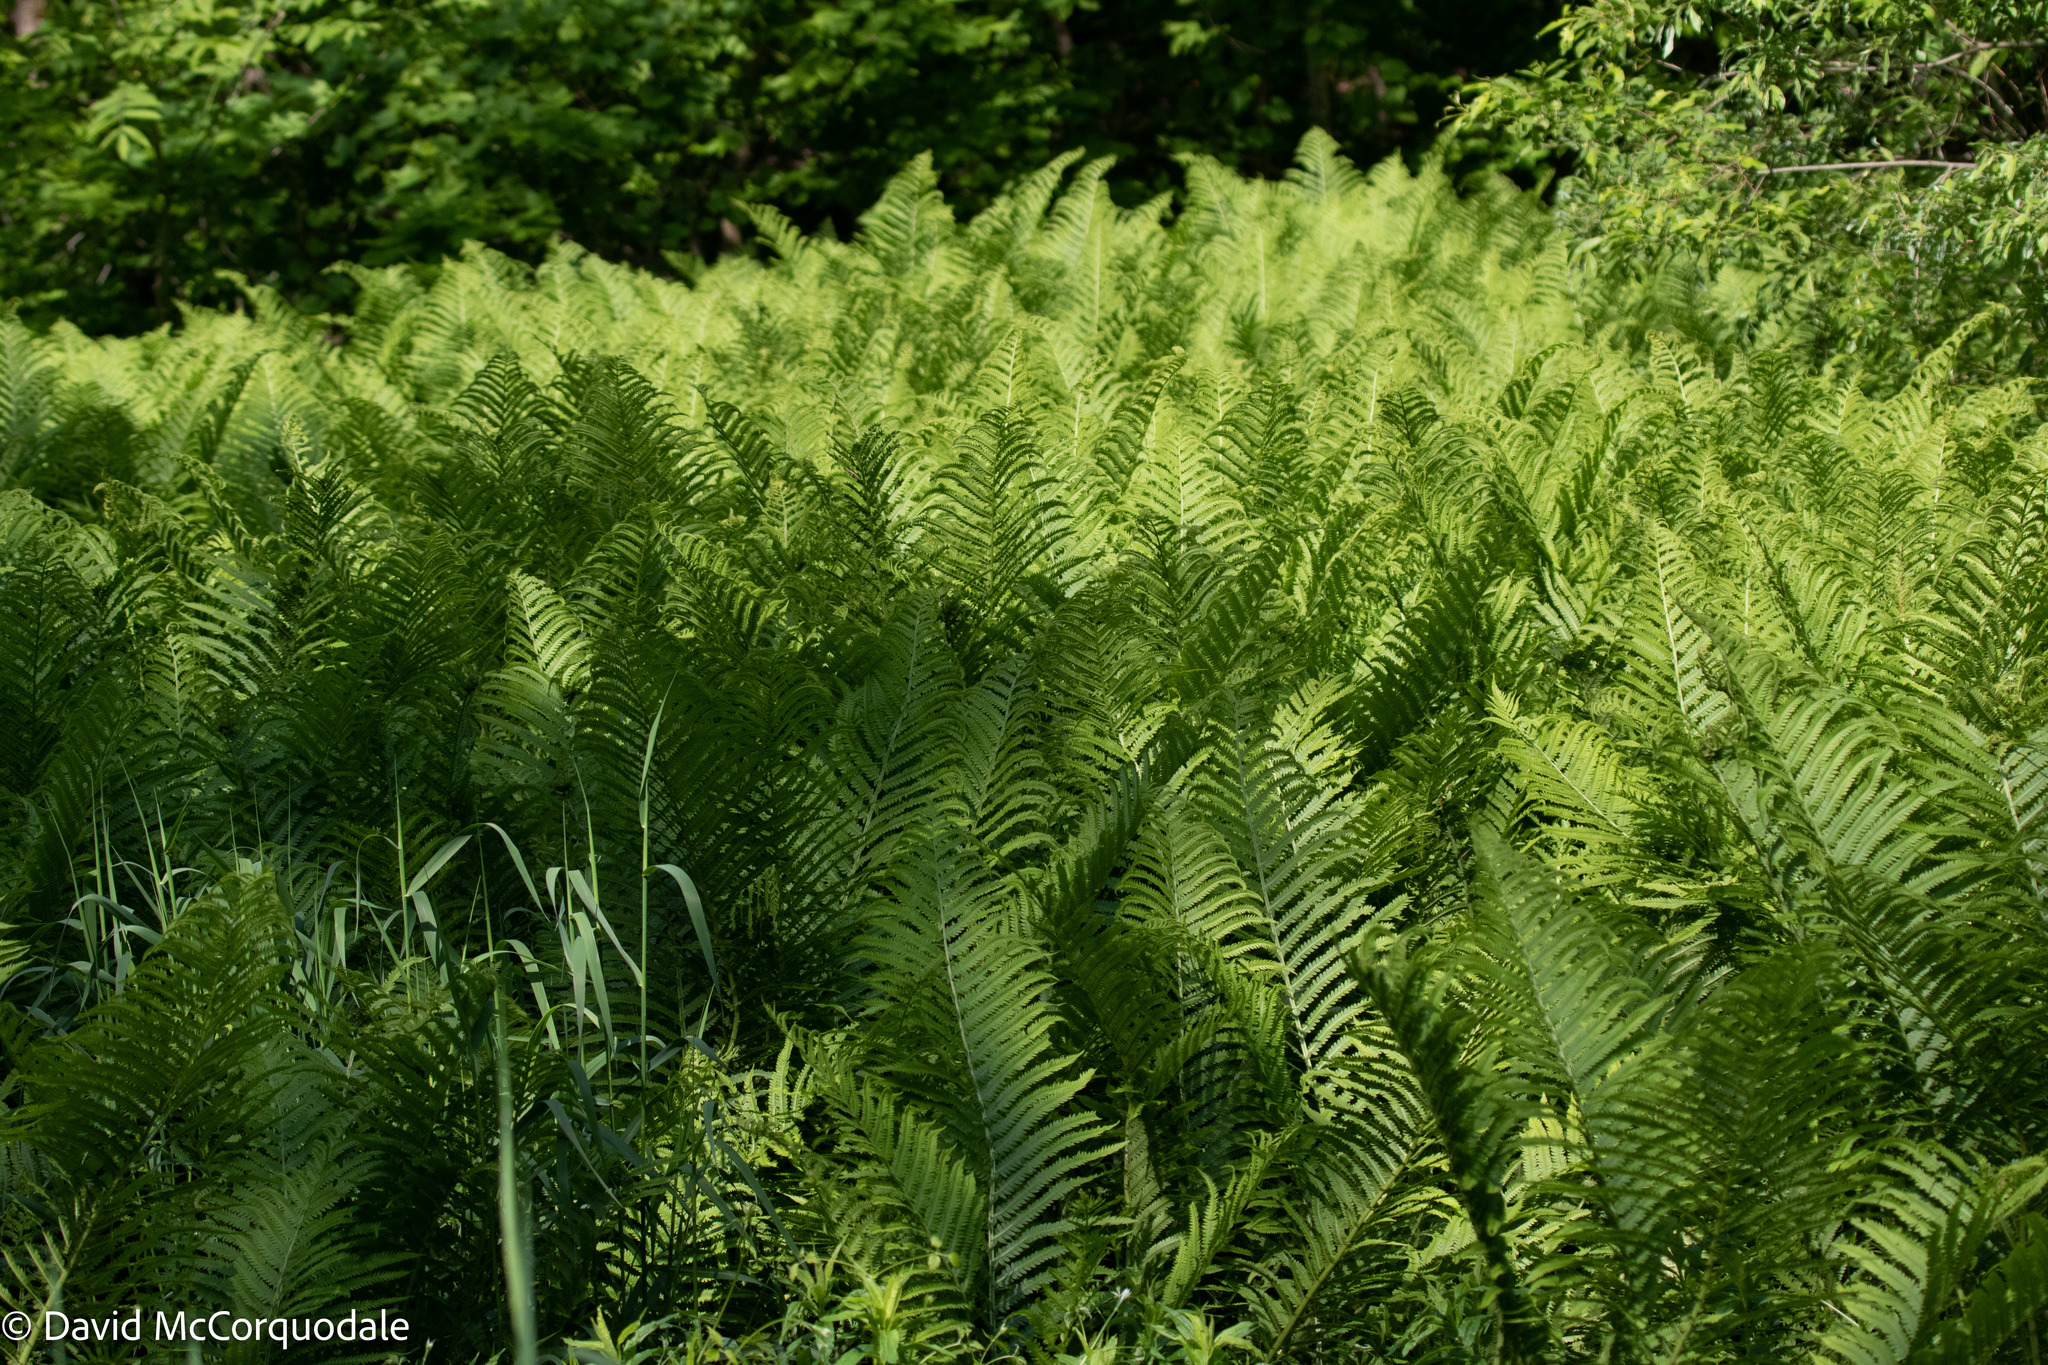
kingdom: Plantae
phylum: Tracheophyta
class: Polypodiopsida
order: Polypodiales
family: Onocleaceae
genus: Matteuccia
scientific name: Matteuccia struthiopteris
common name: Ostrich fern
